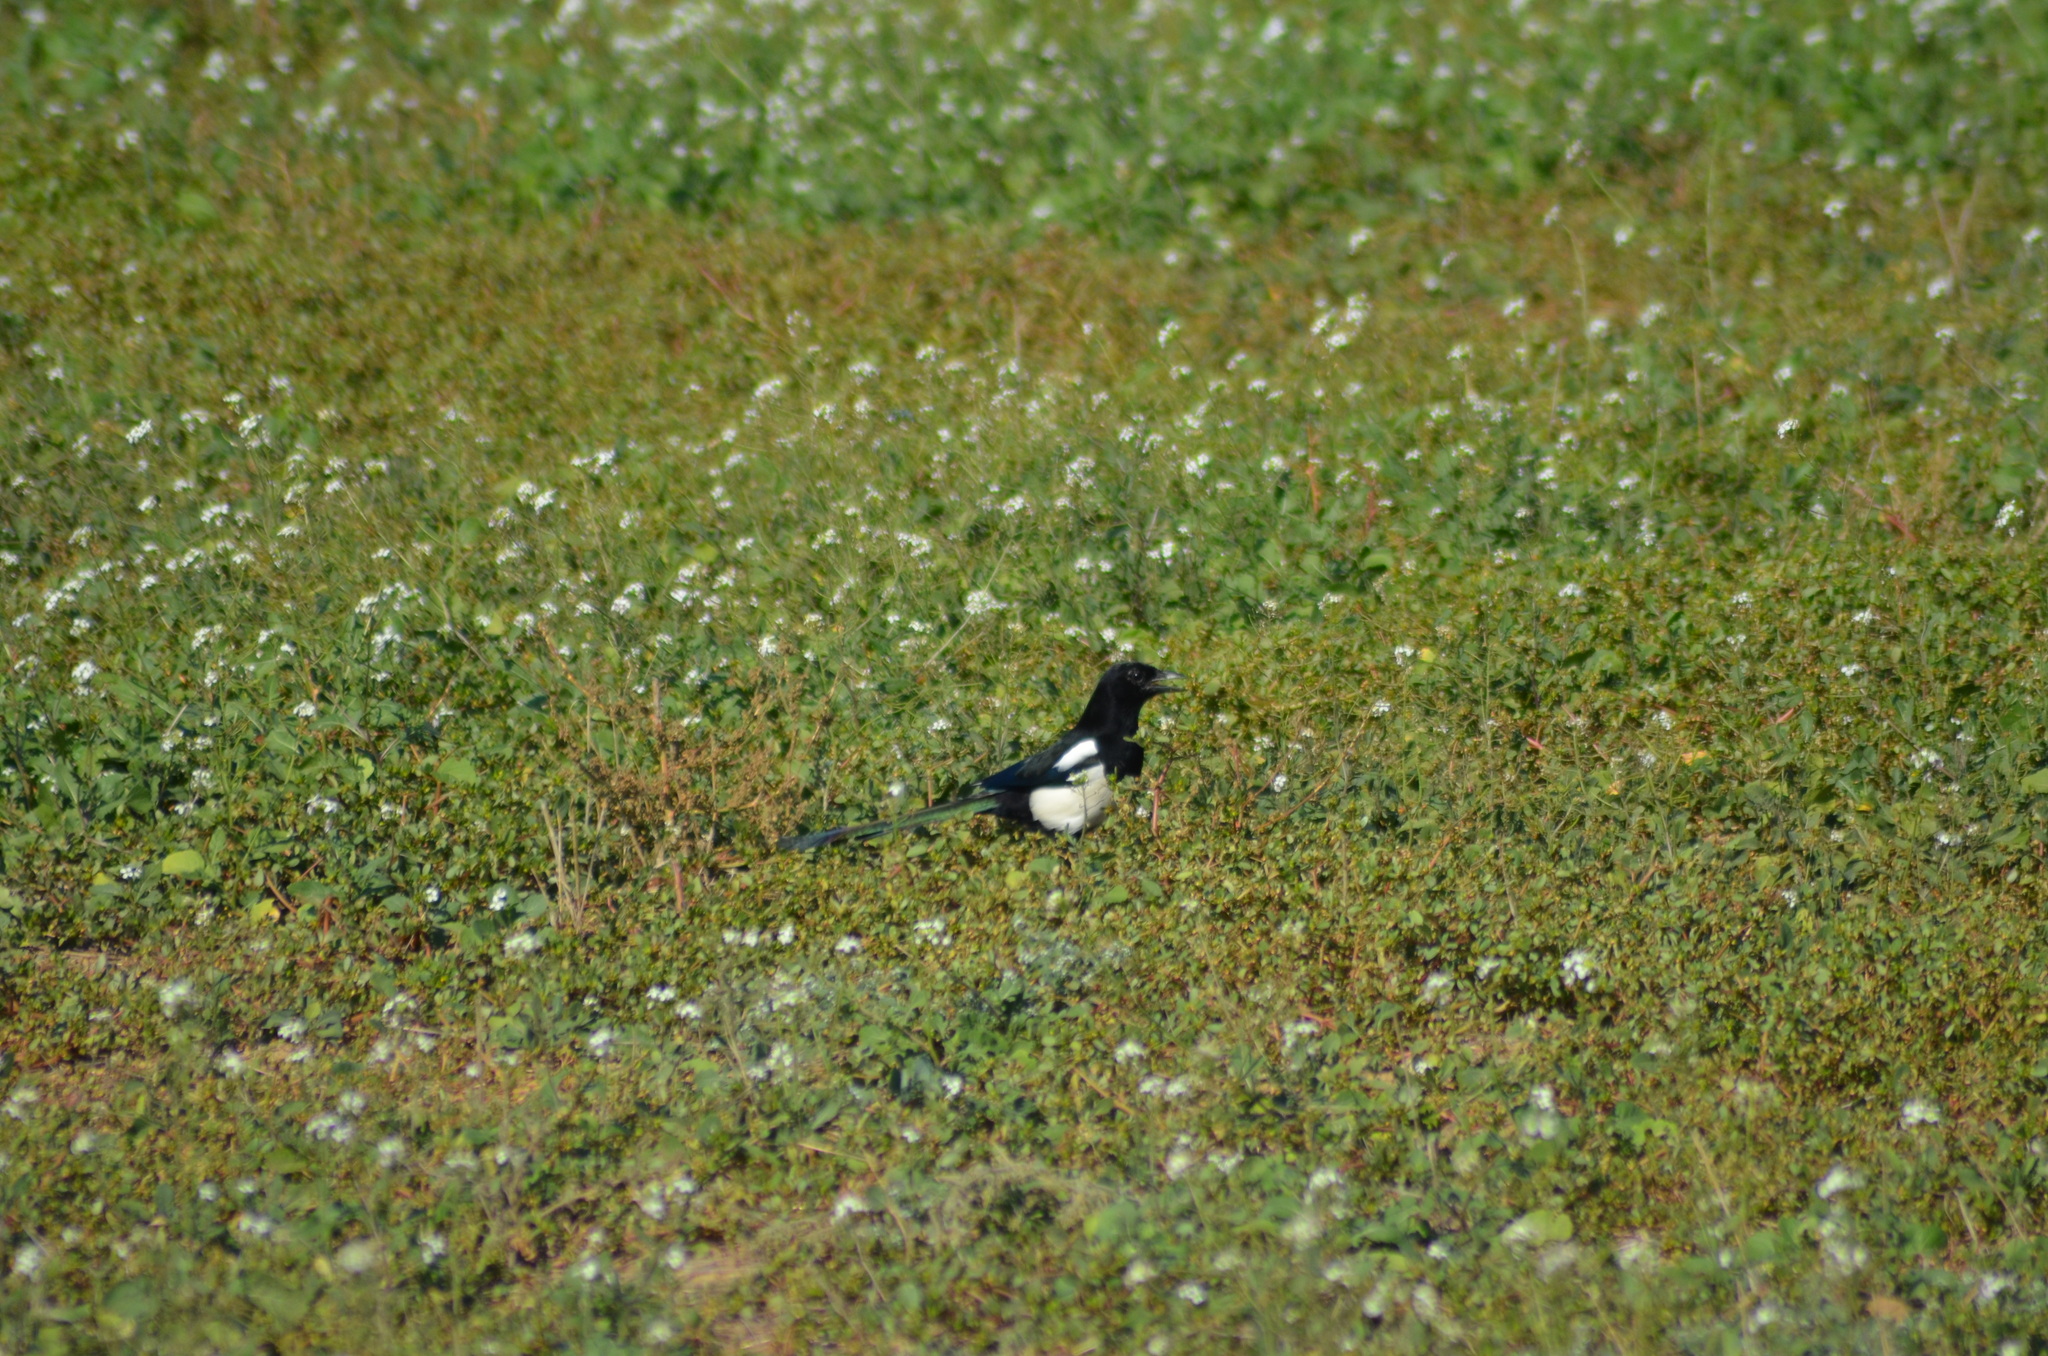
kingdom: Animalia
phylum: Chordata
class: Aves
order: Passeriformes
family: Corvidae
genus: Pica
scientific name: Pica pica
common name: Eurasian magpie
